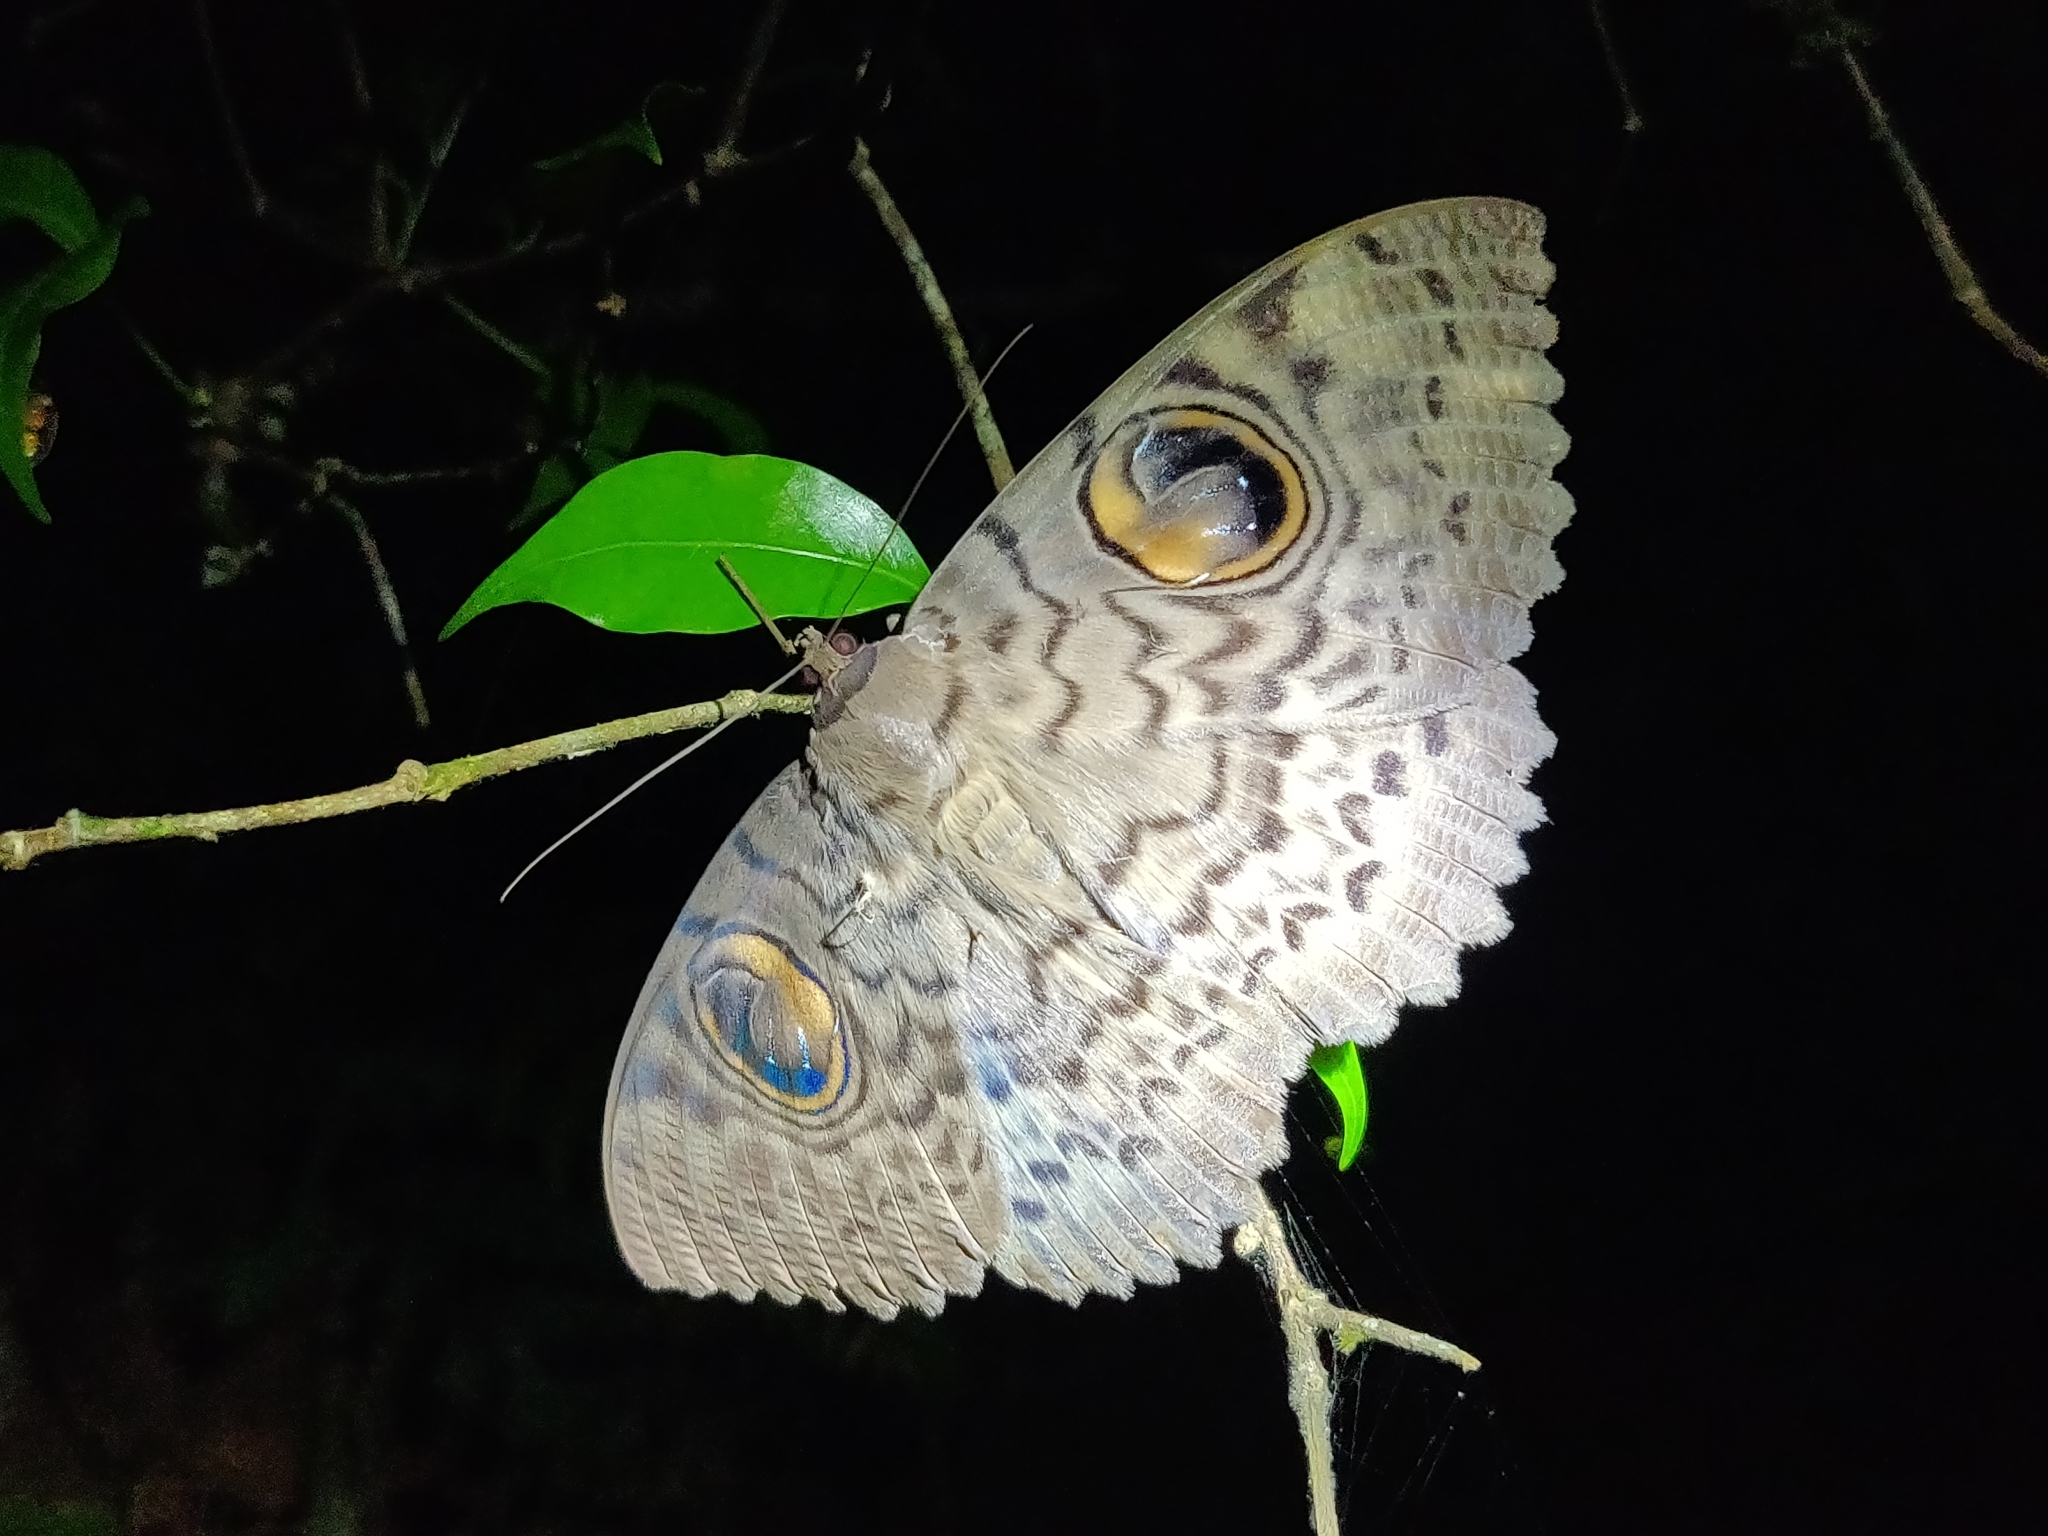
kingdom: Animalia
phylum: Arthropoda
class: Insecta
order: Lepidoptera
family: Erebidae
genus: Erebus
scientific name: Erebus macrops
